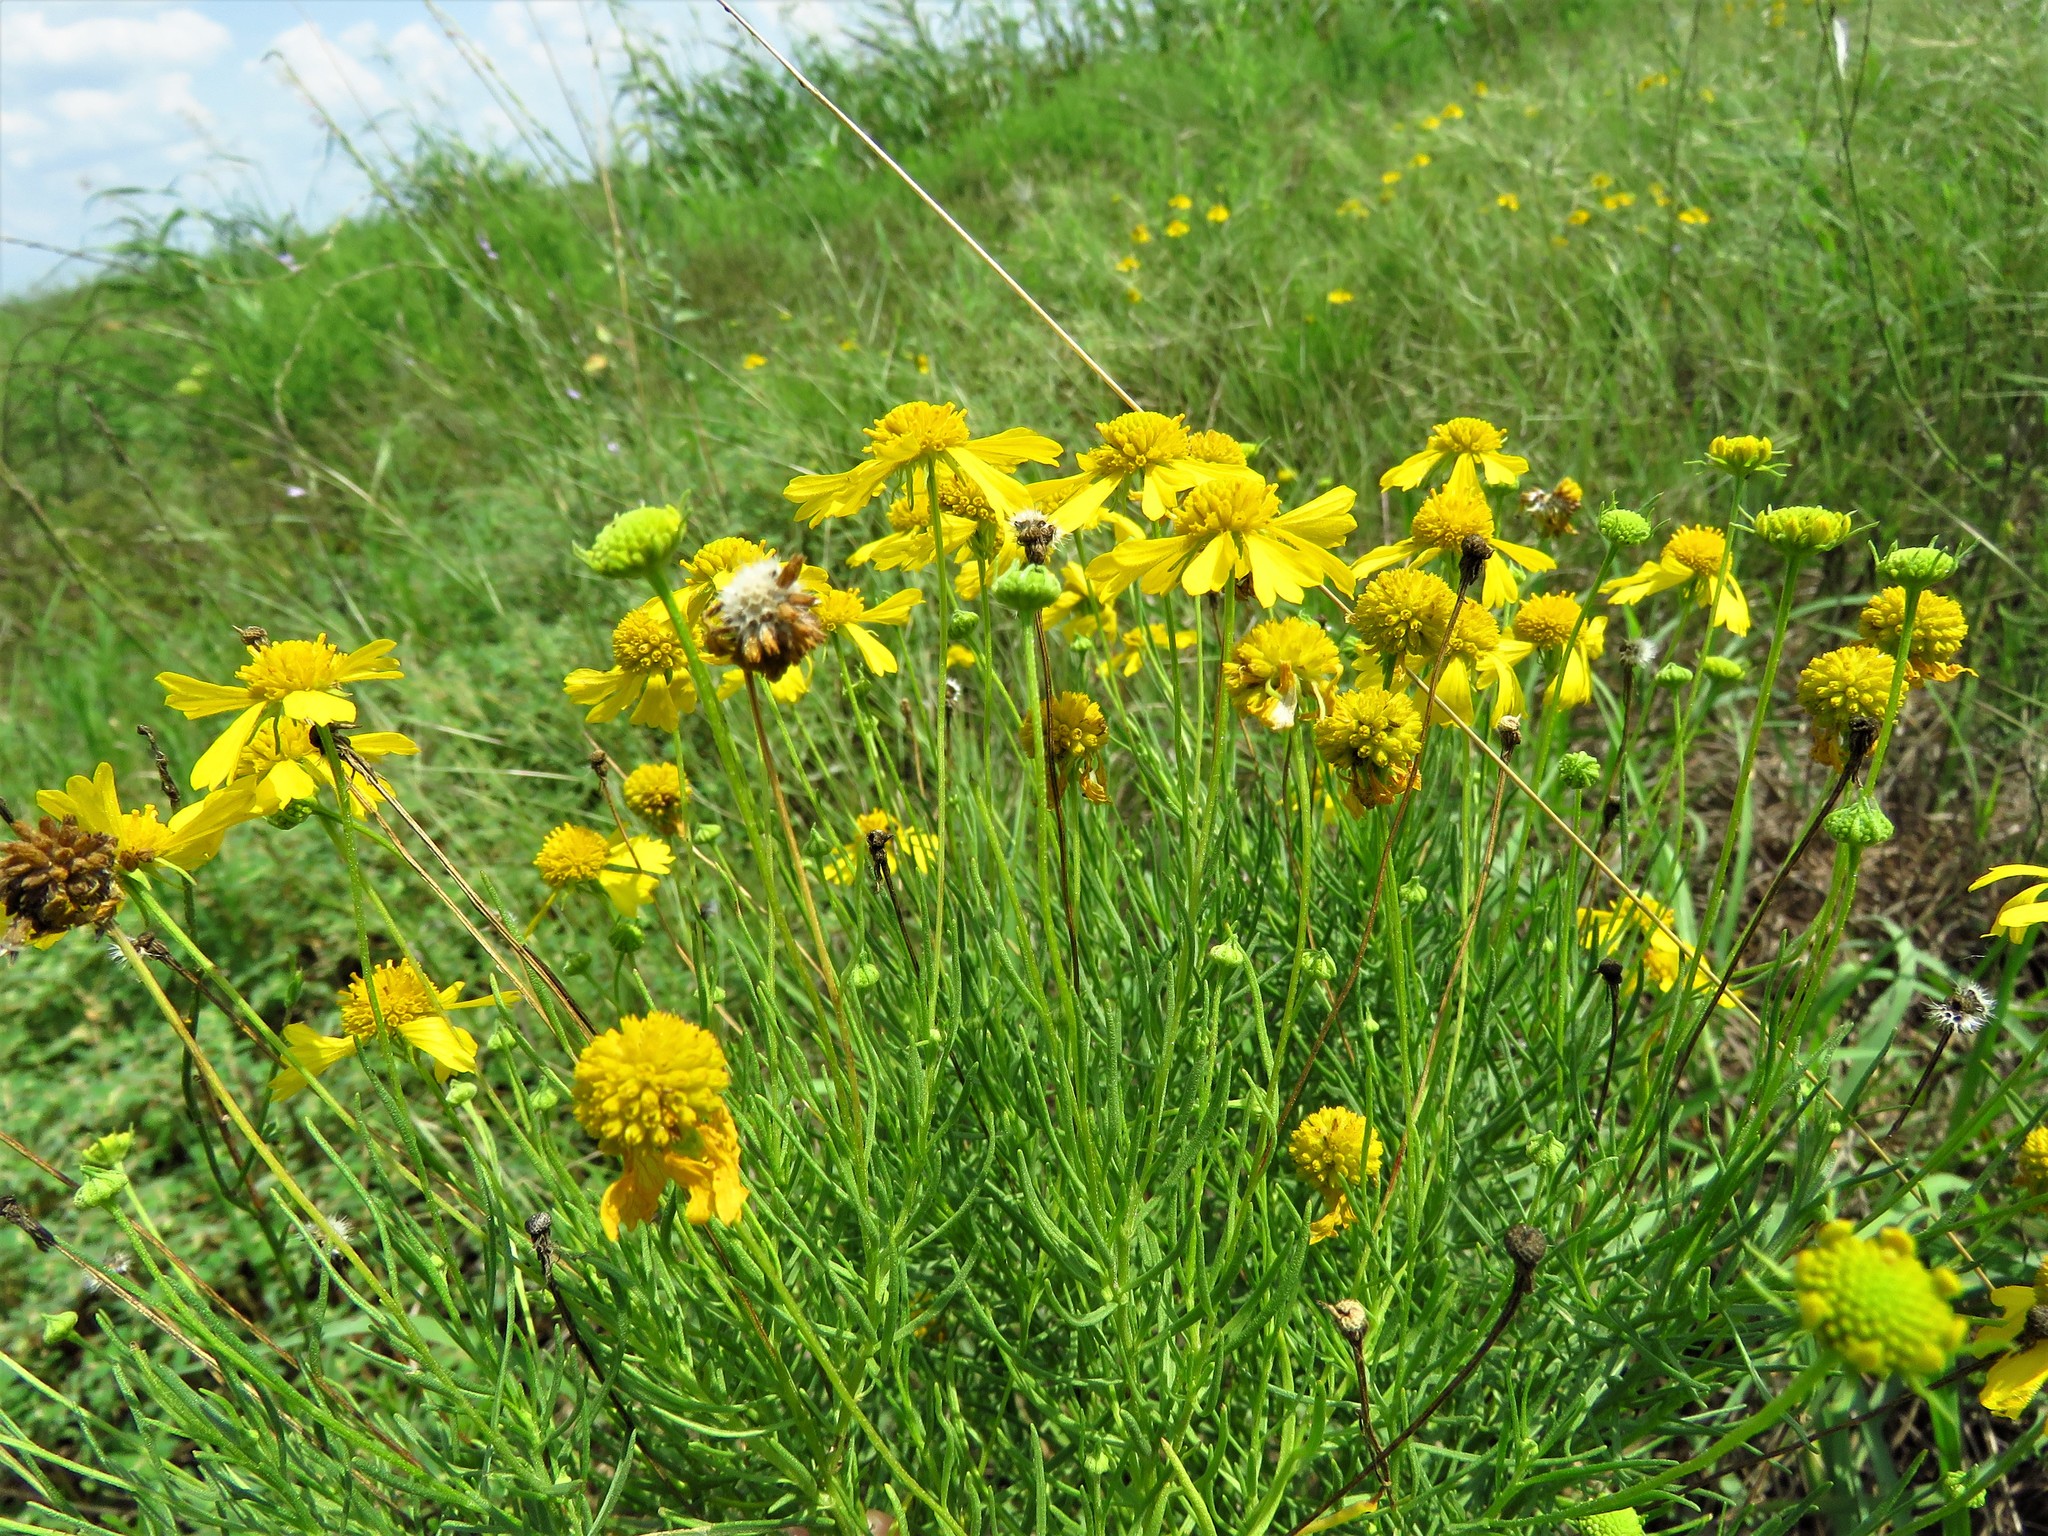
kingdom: Plantae
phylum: Tracheophyta
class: Magnoliopsida
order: Asterales
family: Asteraceae
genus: Helenium
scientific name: Helenium amarum
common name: Bitter sneezeweed
